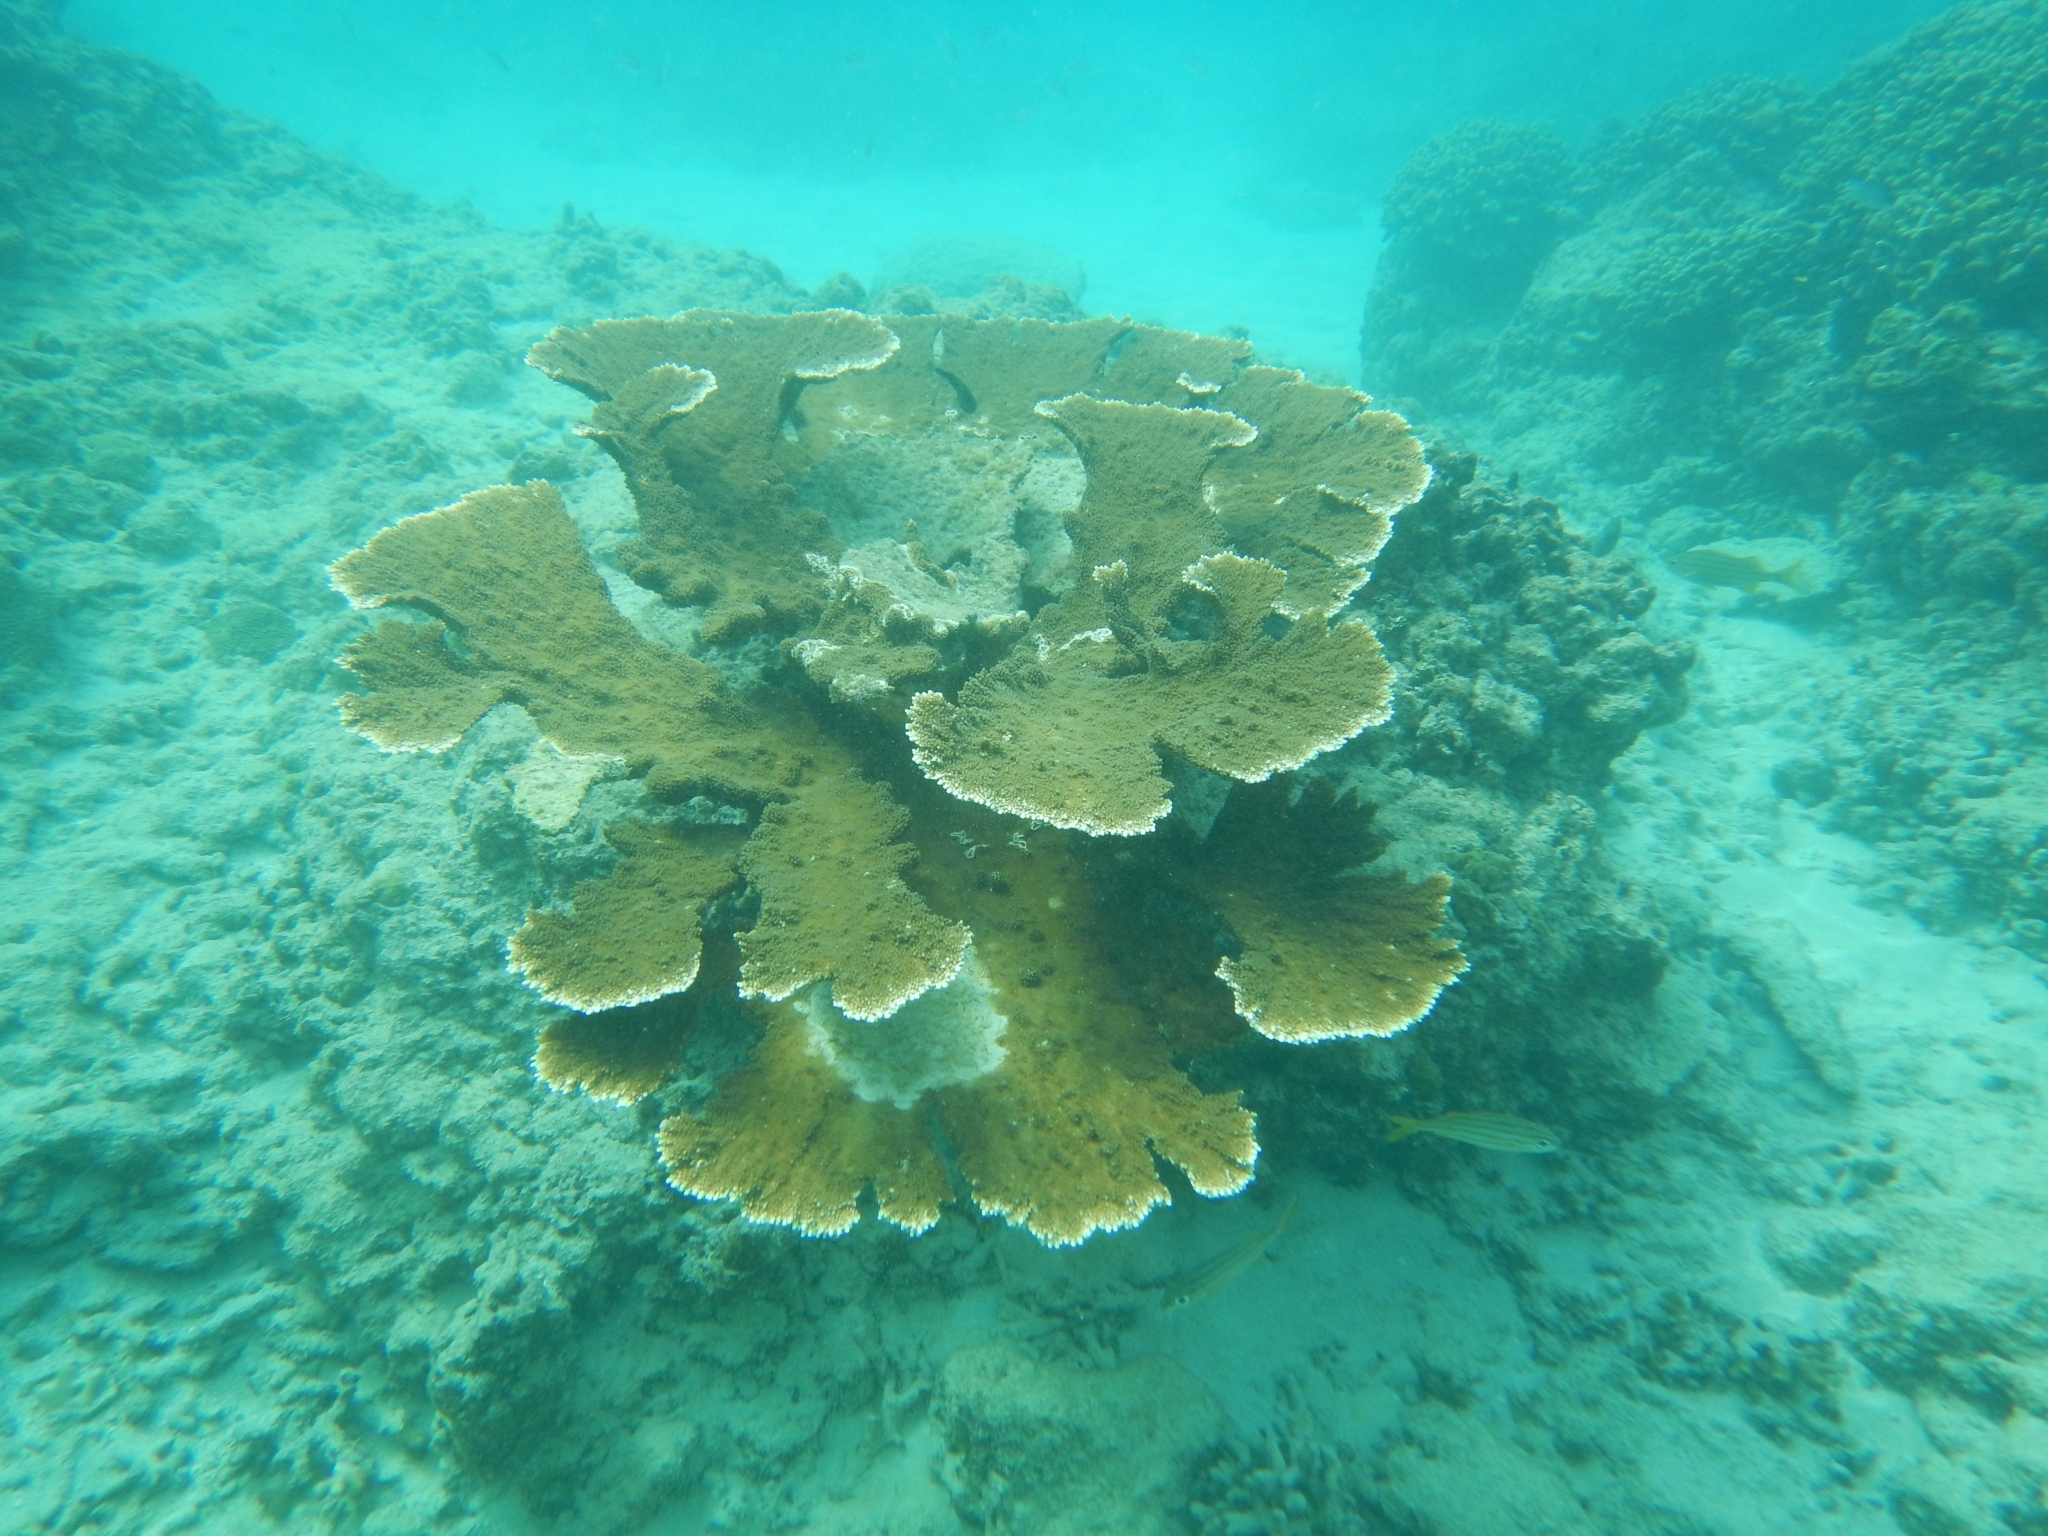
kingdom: Animalia
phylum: Cnidaria
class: Anthozoa
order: Scleractinia
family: Acroporidae
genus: Acropora
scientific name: Acropora palmata
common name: Elkhorn coral
